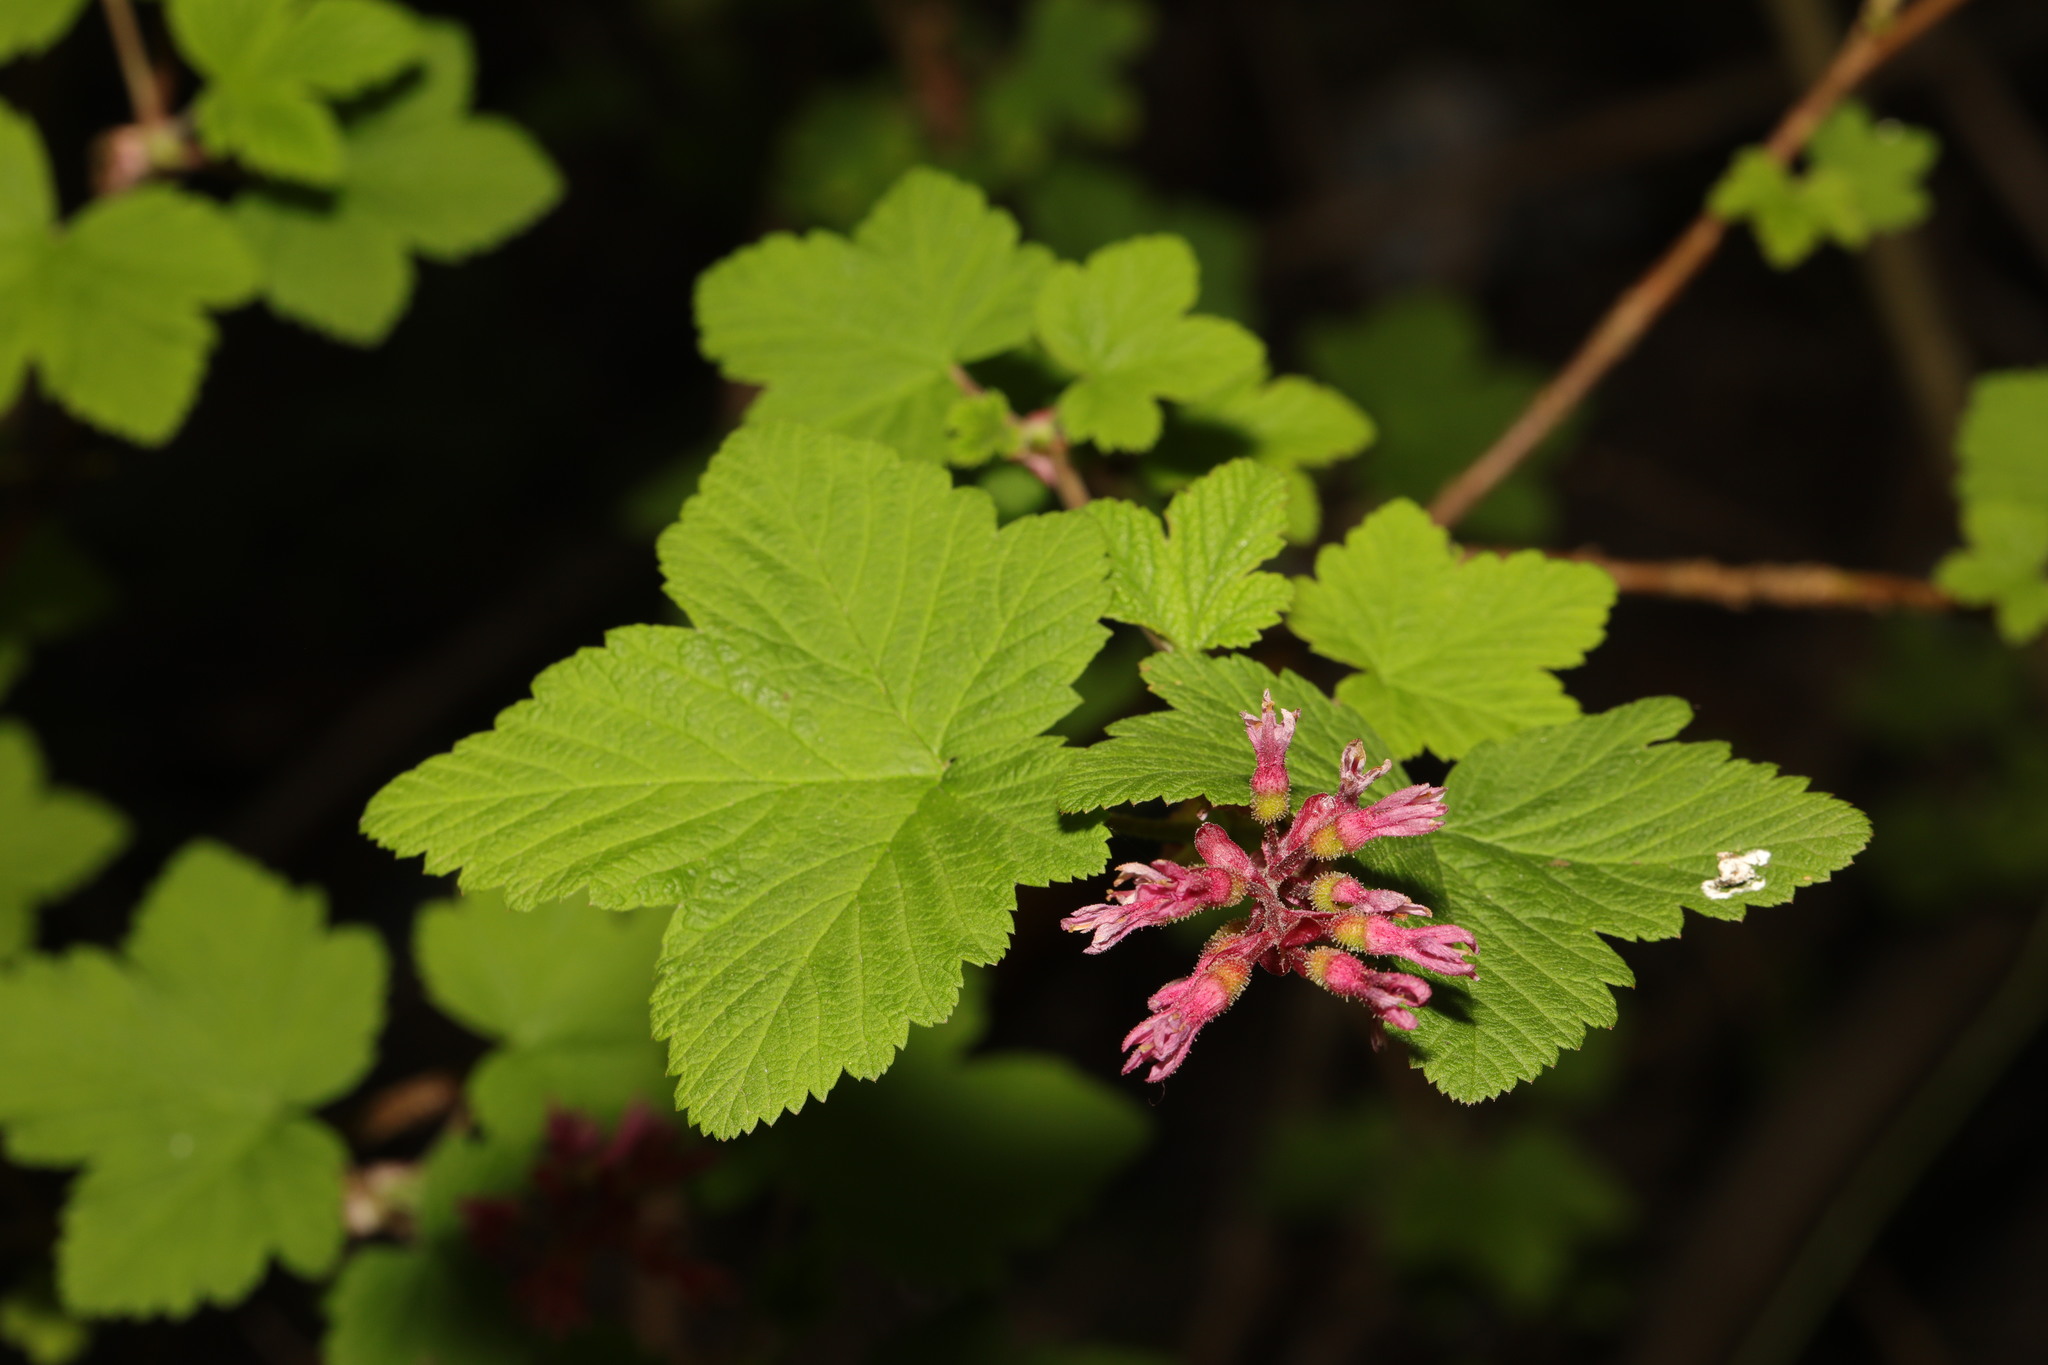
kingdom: Plantae
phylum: Tracheophyta
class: Magnoliopsida
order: Saxifragales
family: Grossulariaceae
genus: Ribes
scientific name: Ribes sanguineum
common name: Flowering currant
